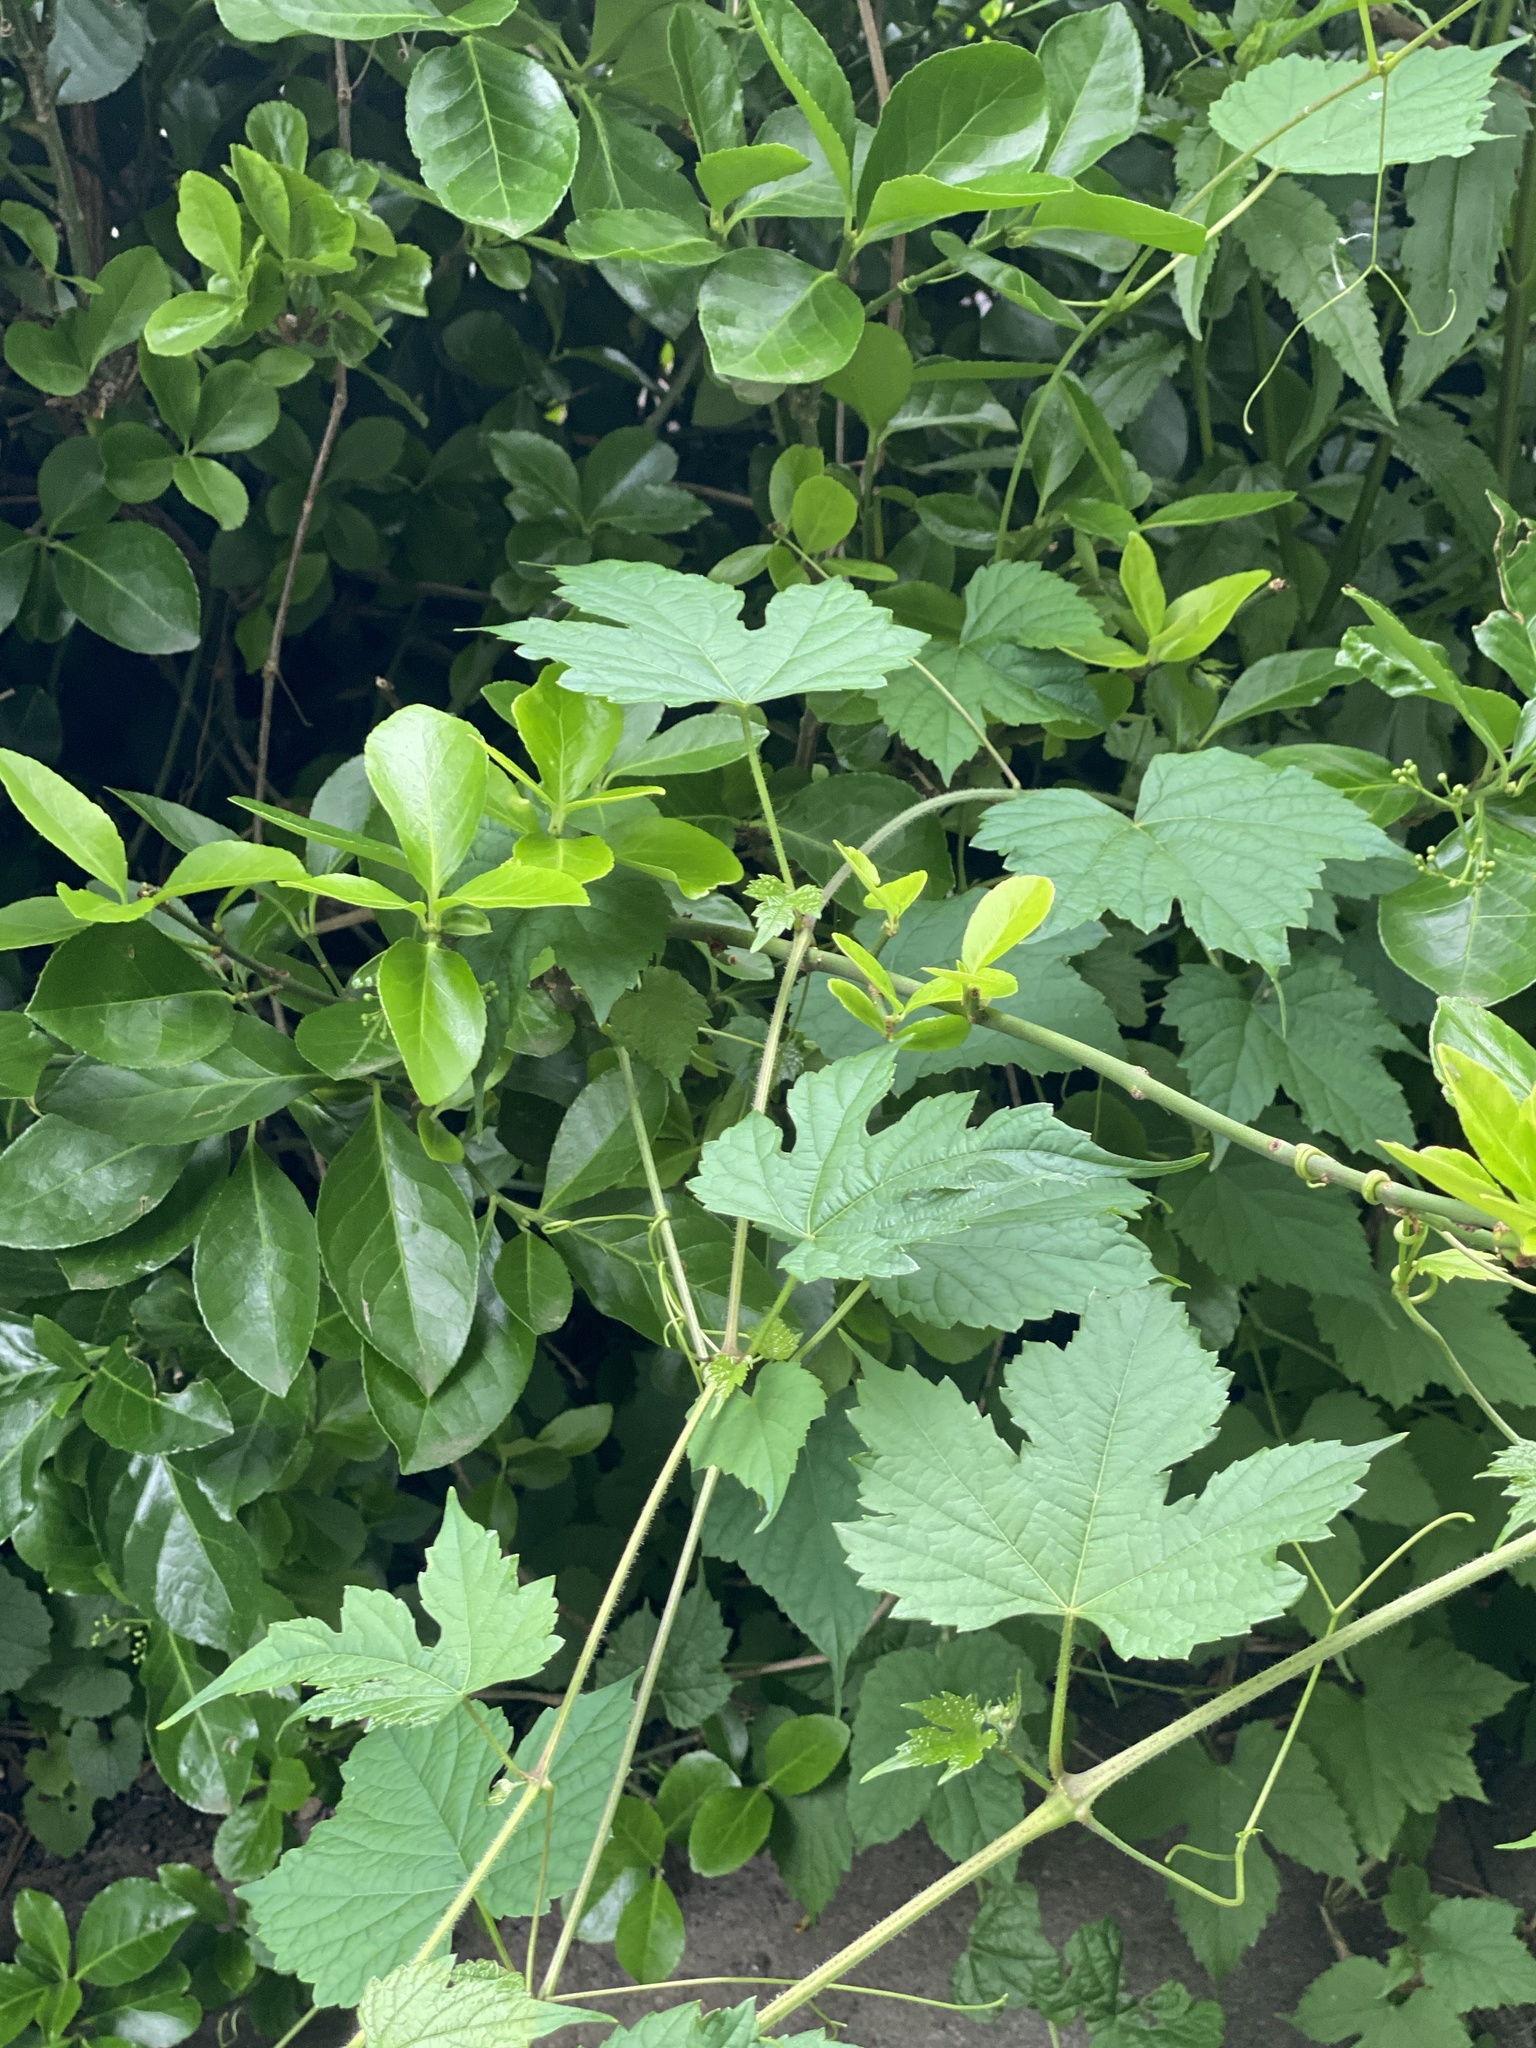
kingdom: Plantae
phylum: Tracheophyta
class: Magnoliopsida
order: Vitales
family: Vitaceae
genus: Ampelopsis
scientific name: Ampelopsis glandulosa
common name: Amur peppervine
